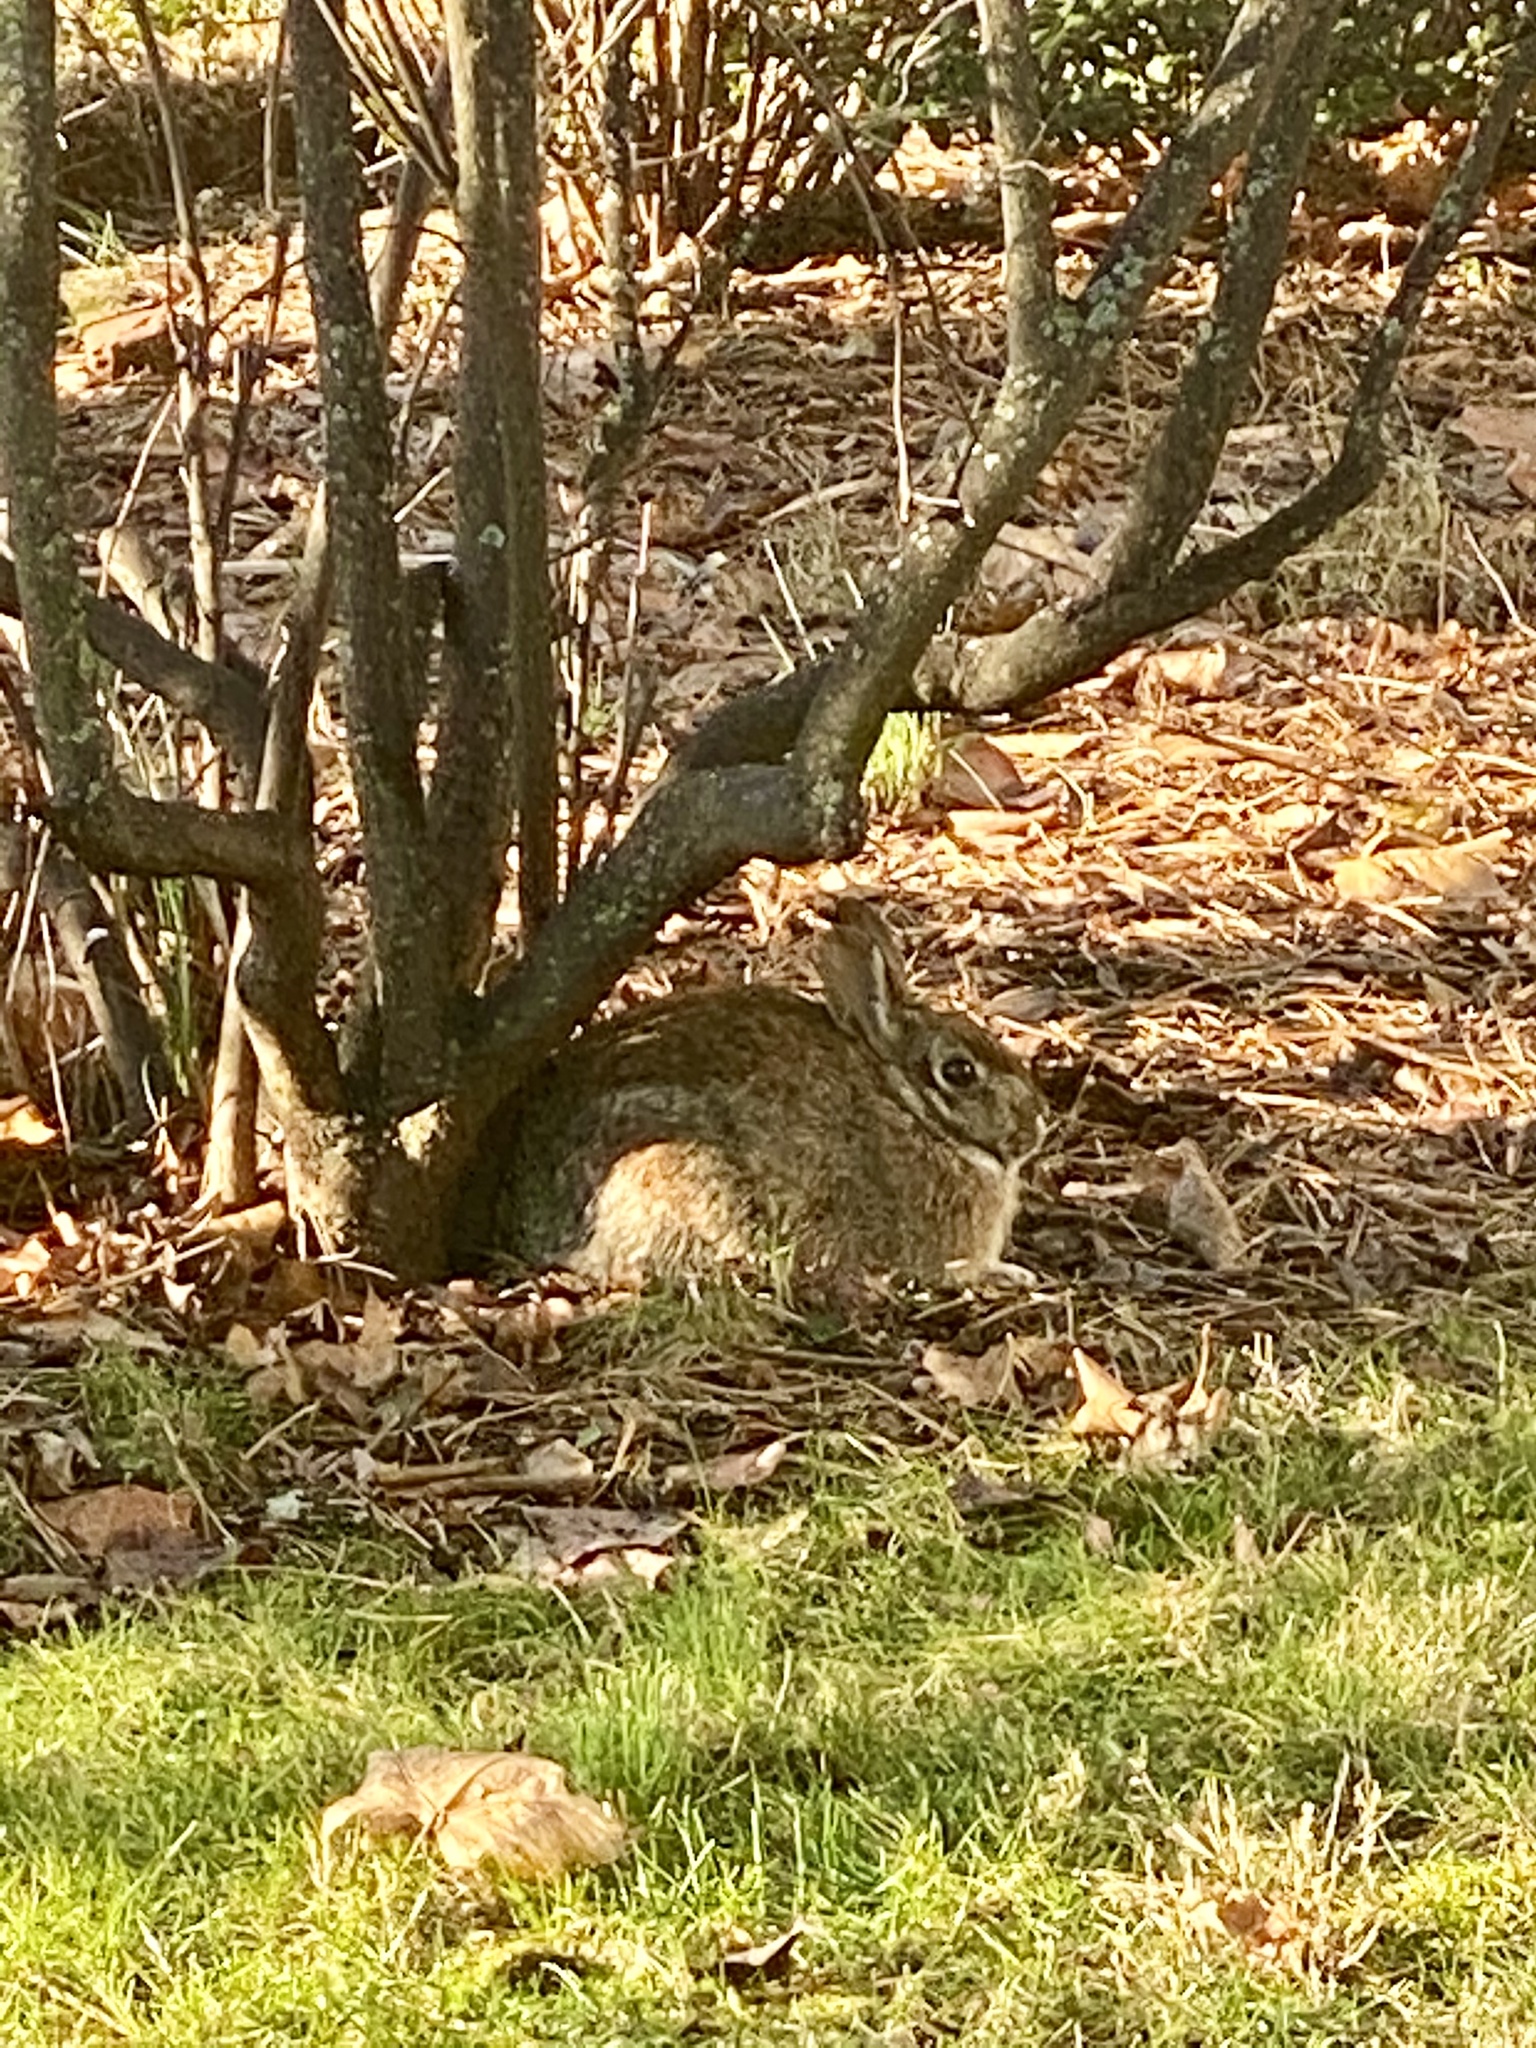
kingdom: Animalia
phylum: Chordata
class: Mammalia
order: Lagomorpha
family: Leporidae
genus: Sylvilagus
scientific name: Sylvilagus floridanus
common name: Eastern cottontail
